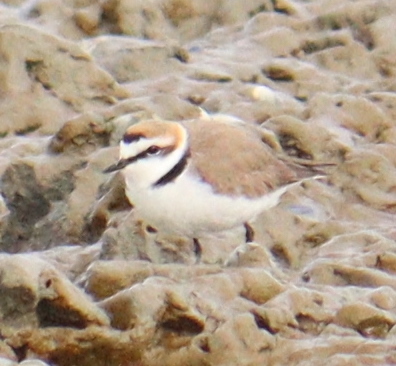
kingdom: Animalia
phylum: Chordata
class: Aves
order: Charadriiformes
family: Charadriidae
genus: Charadrius
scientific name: Charadrius alexandrinus
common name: Kentish plover
